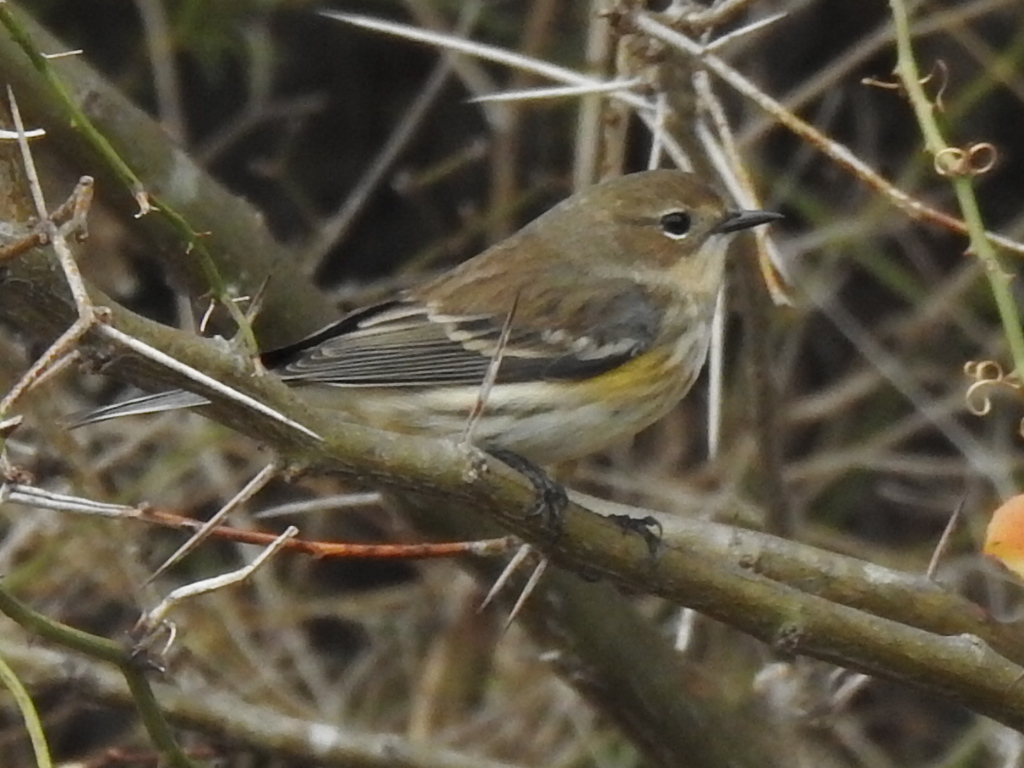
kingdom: Animalia
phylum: Chordata
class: Aves
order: Passeriformes
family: Parulidae
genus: Setophaga
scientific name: Setophaga coronata
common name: Myrtle warbler
